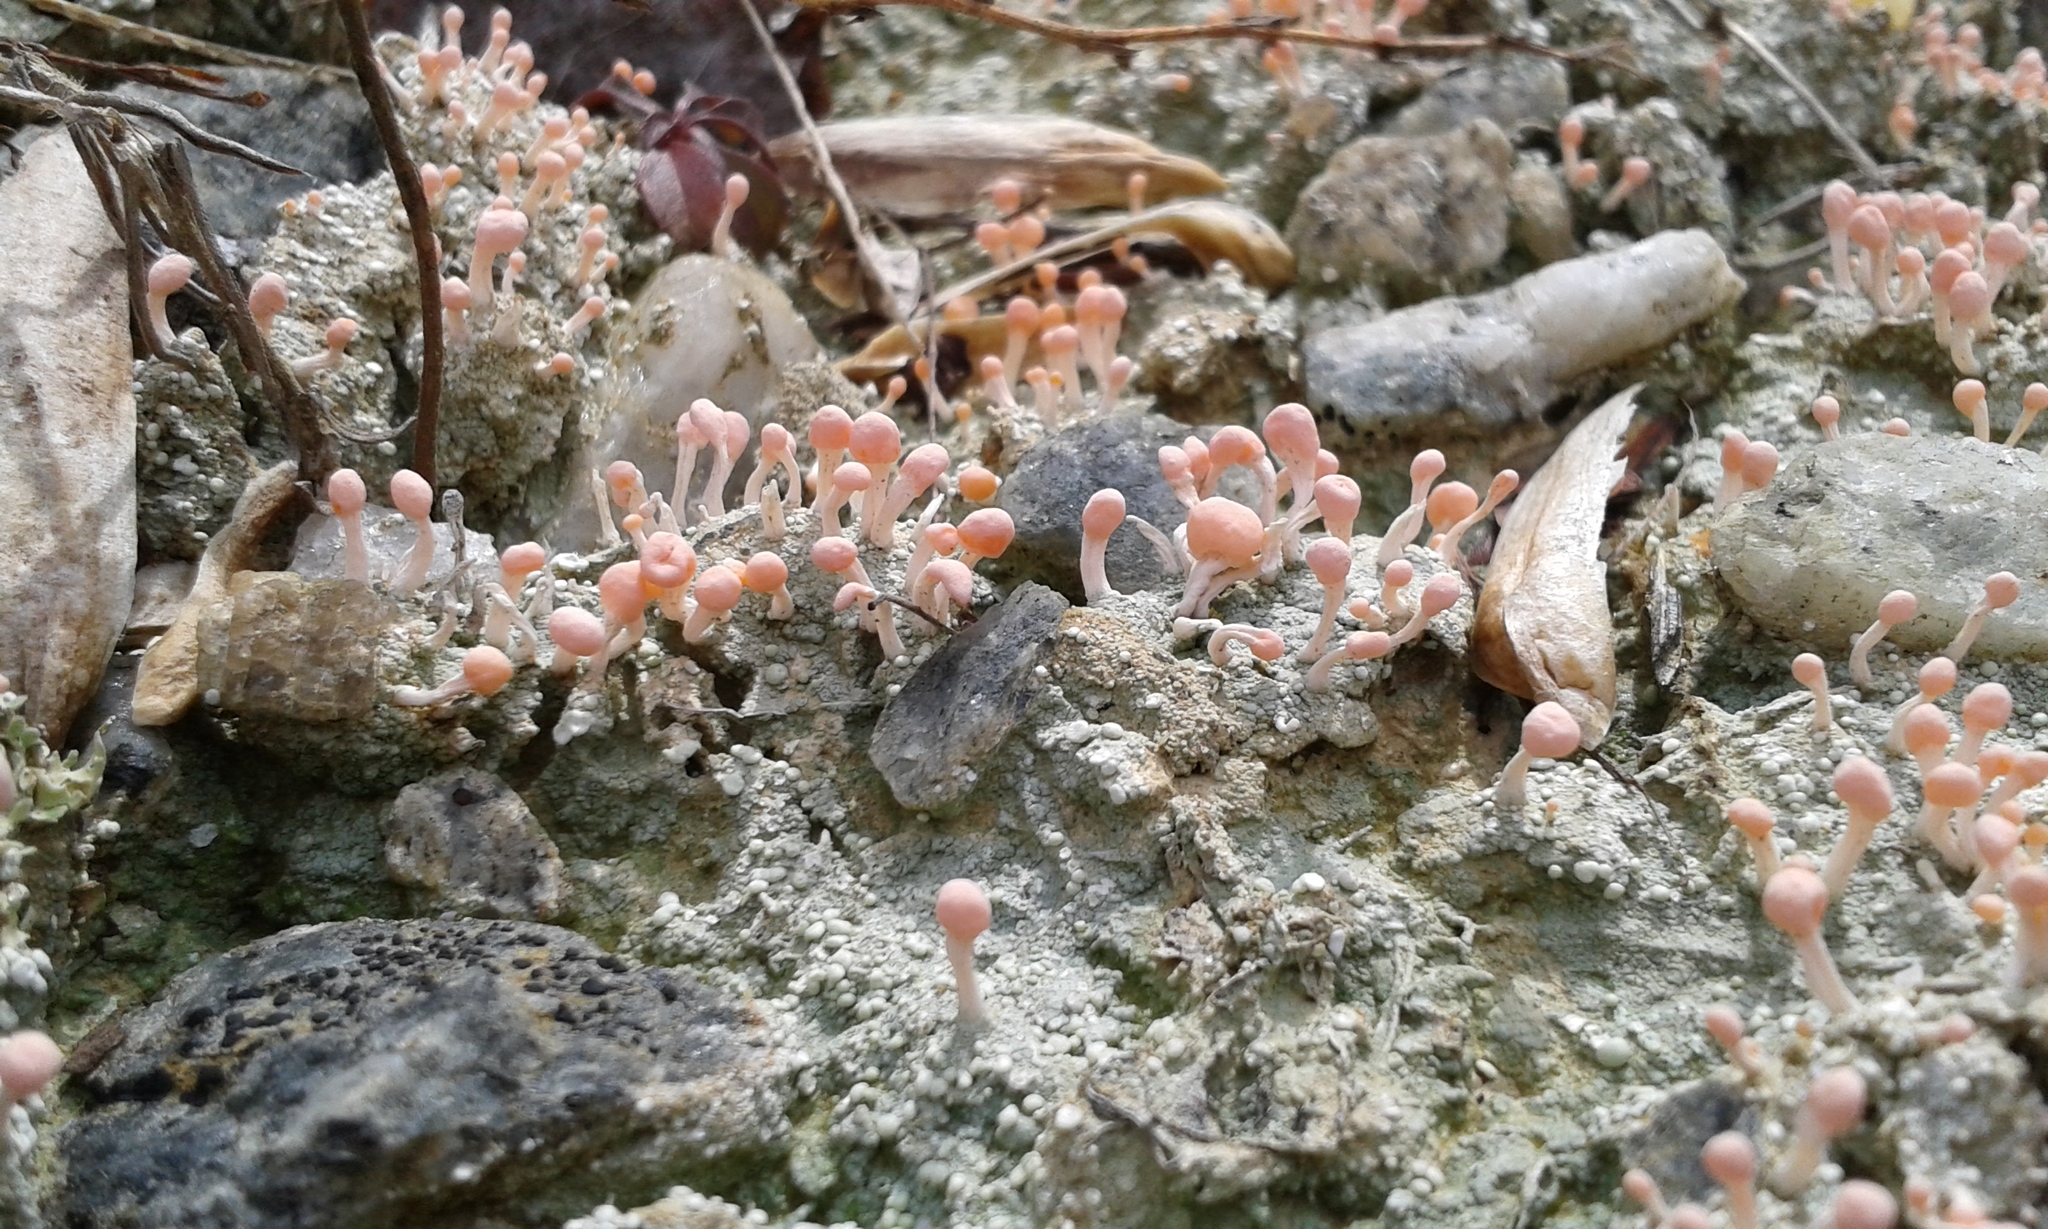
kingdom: Fungi
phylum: Ascomycota
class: Lecanoromycetes
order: Pertusariales
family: Icmadophilaceae
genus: Dibaeis
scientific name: Dibaeis baeomyces
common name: Pink earth lichen
